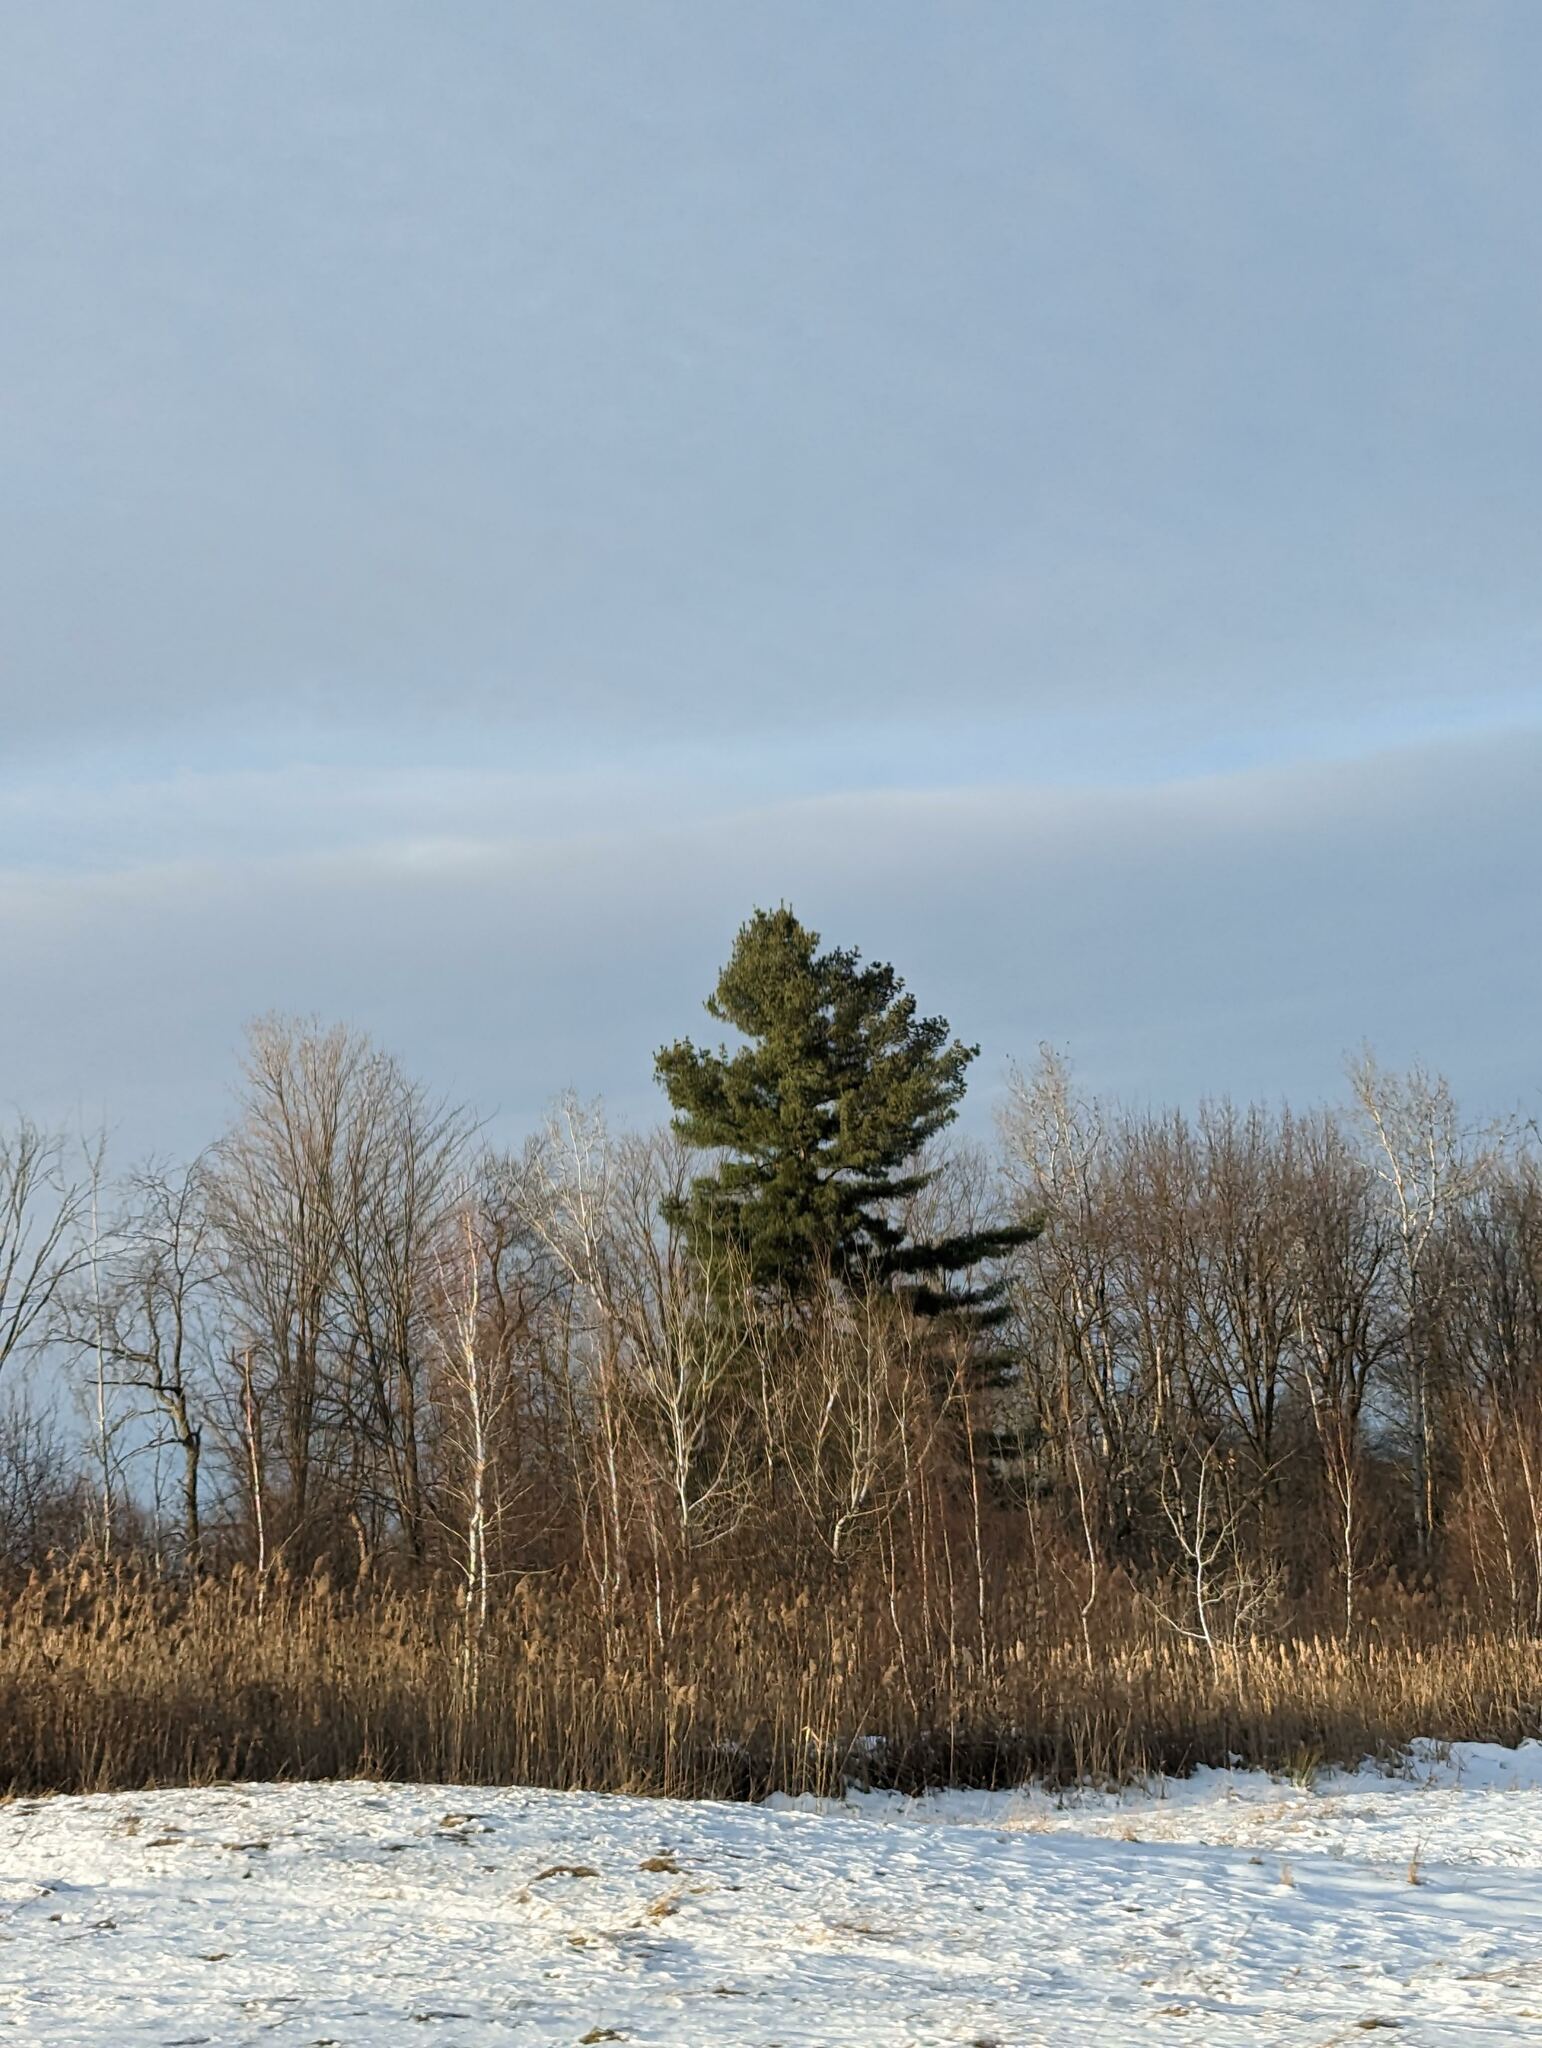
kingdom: Plantae
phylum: Tracheophyta
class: Pinopsida
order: Pinales
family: Pinaceae
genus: Pinus
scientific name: Pinus strobus
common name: Weymouth pine
